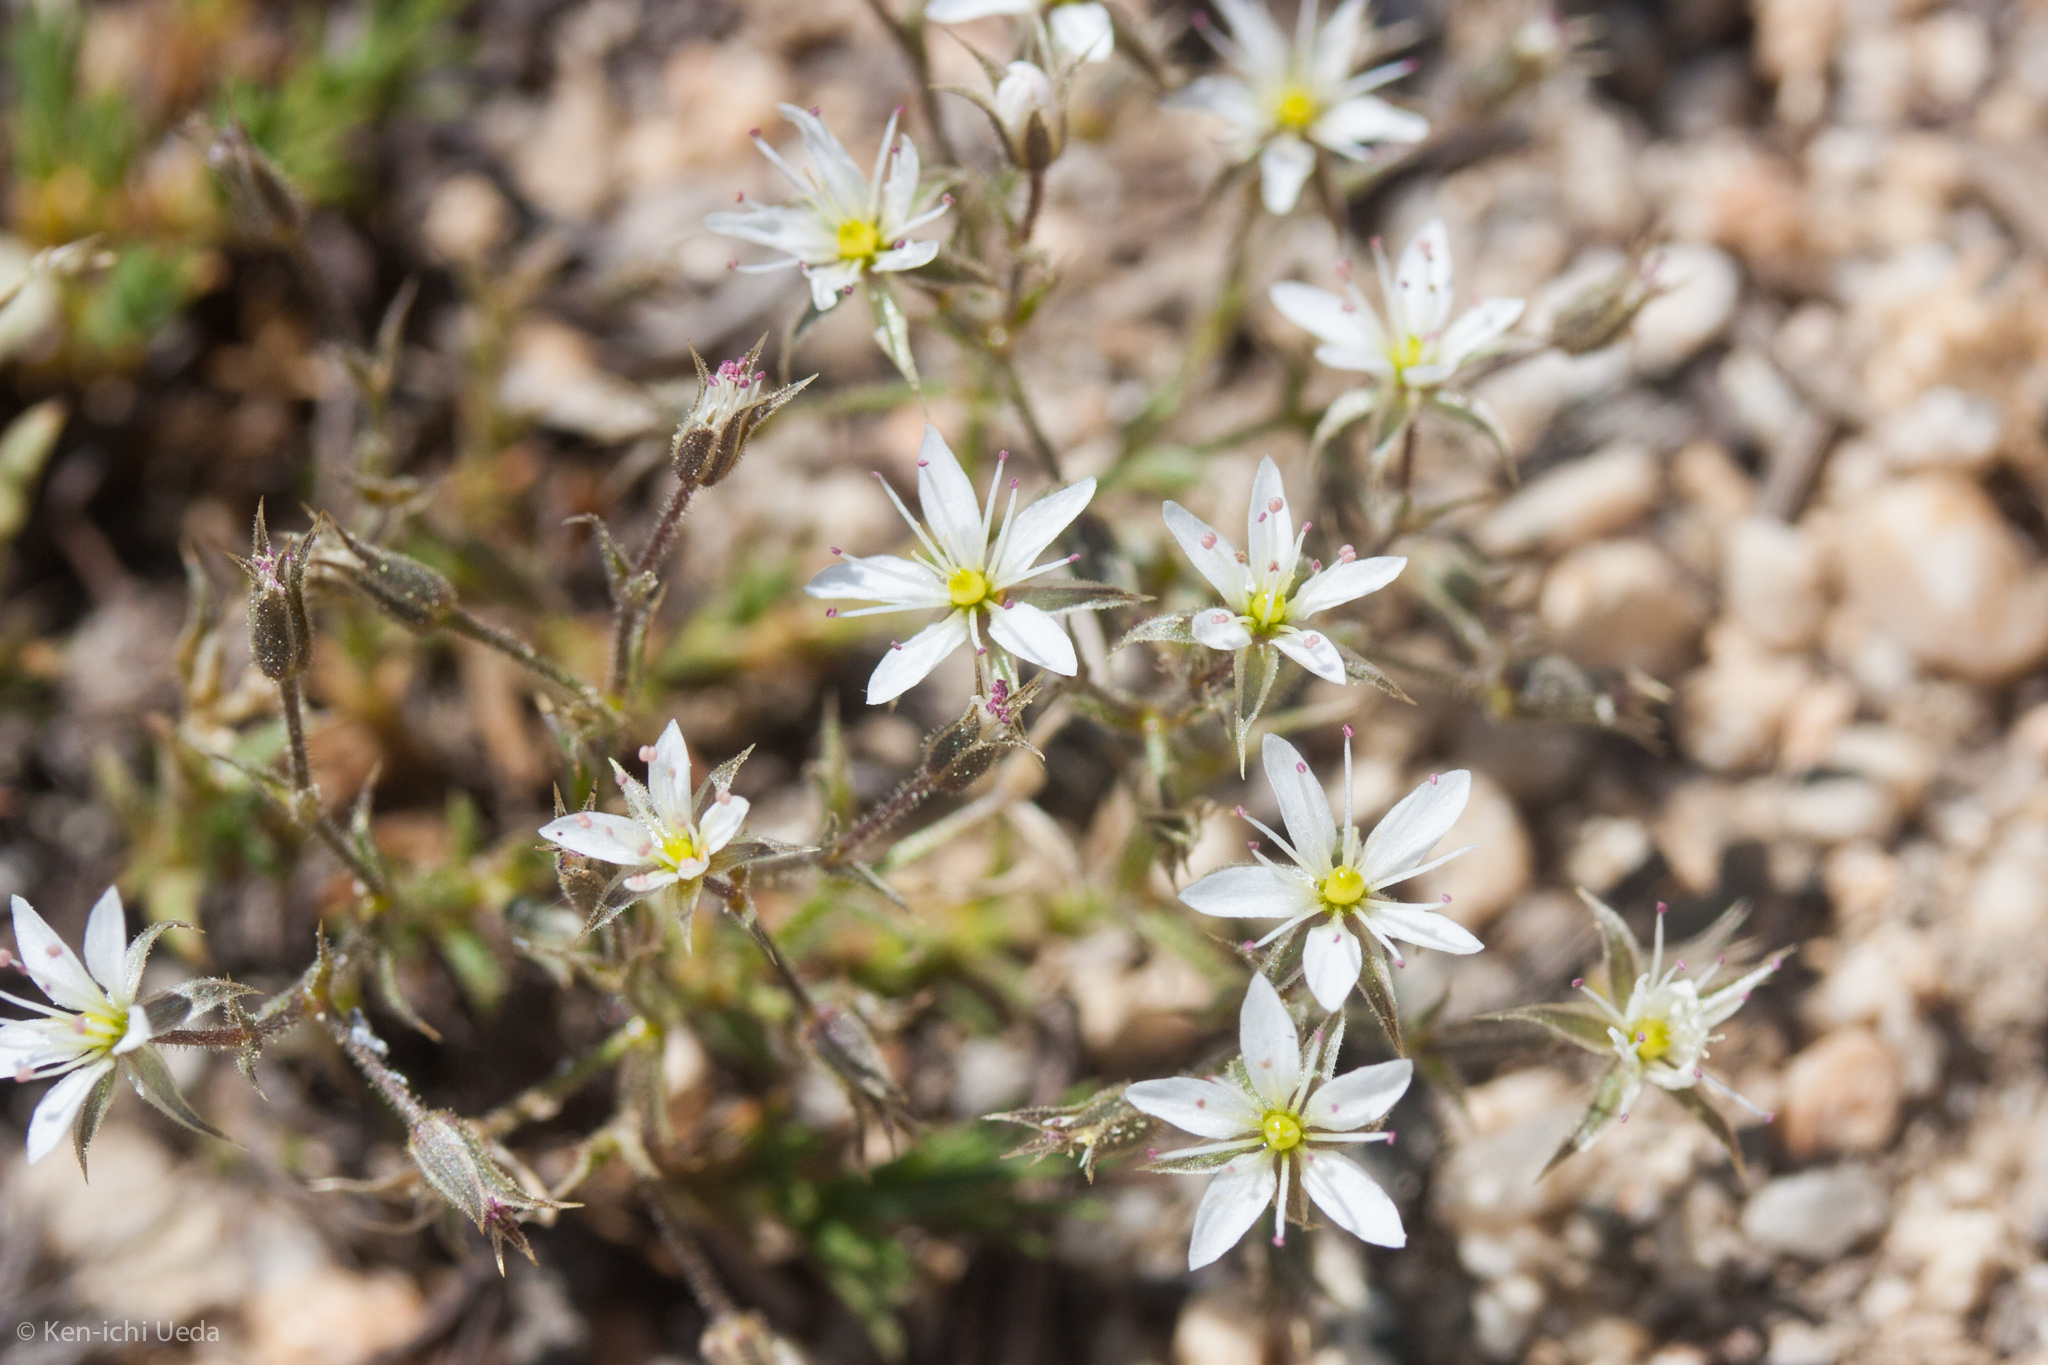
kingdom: Plantae
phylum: Tracheophyta
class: Magnoliopsida
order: Caryophyllales
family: Caryophyllaceae
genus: Sabulina
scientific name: Sabulina nuttallii
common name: Nuttall's stitchwort
